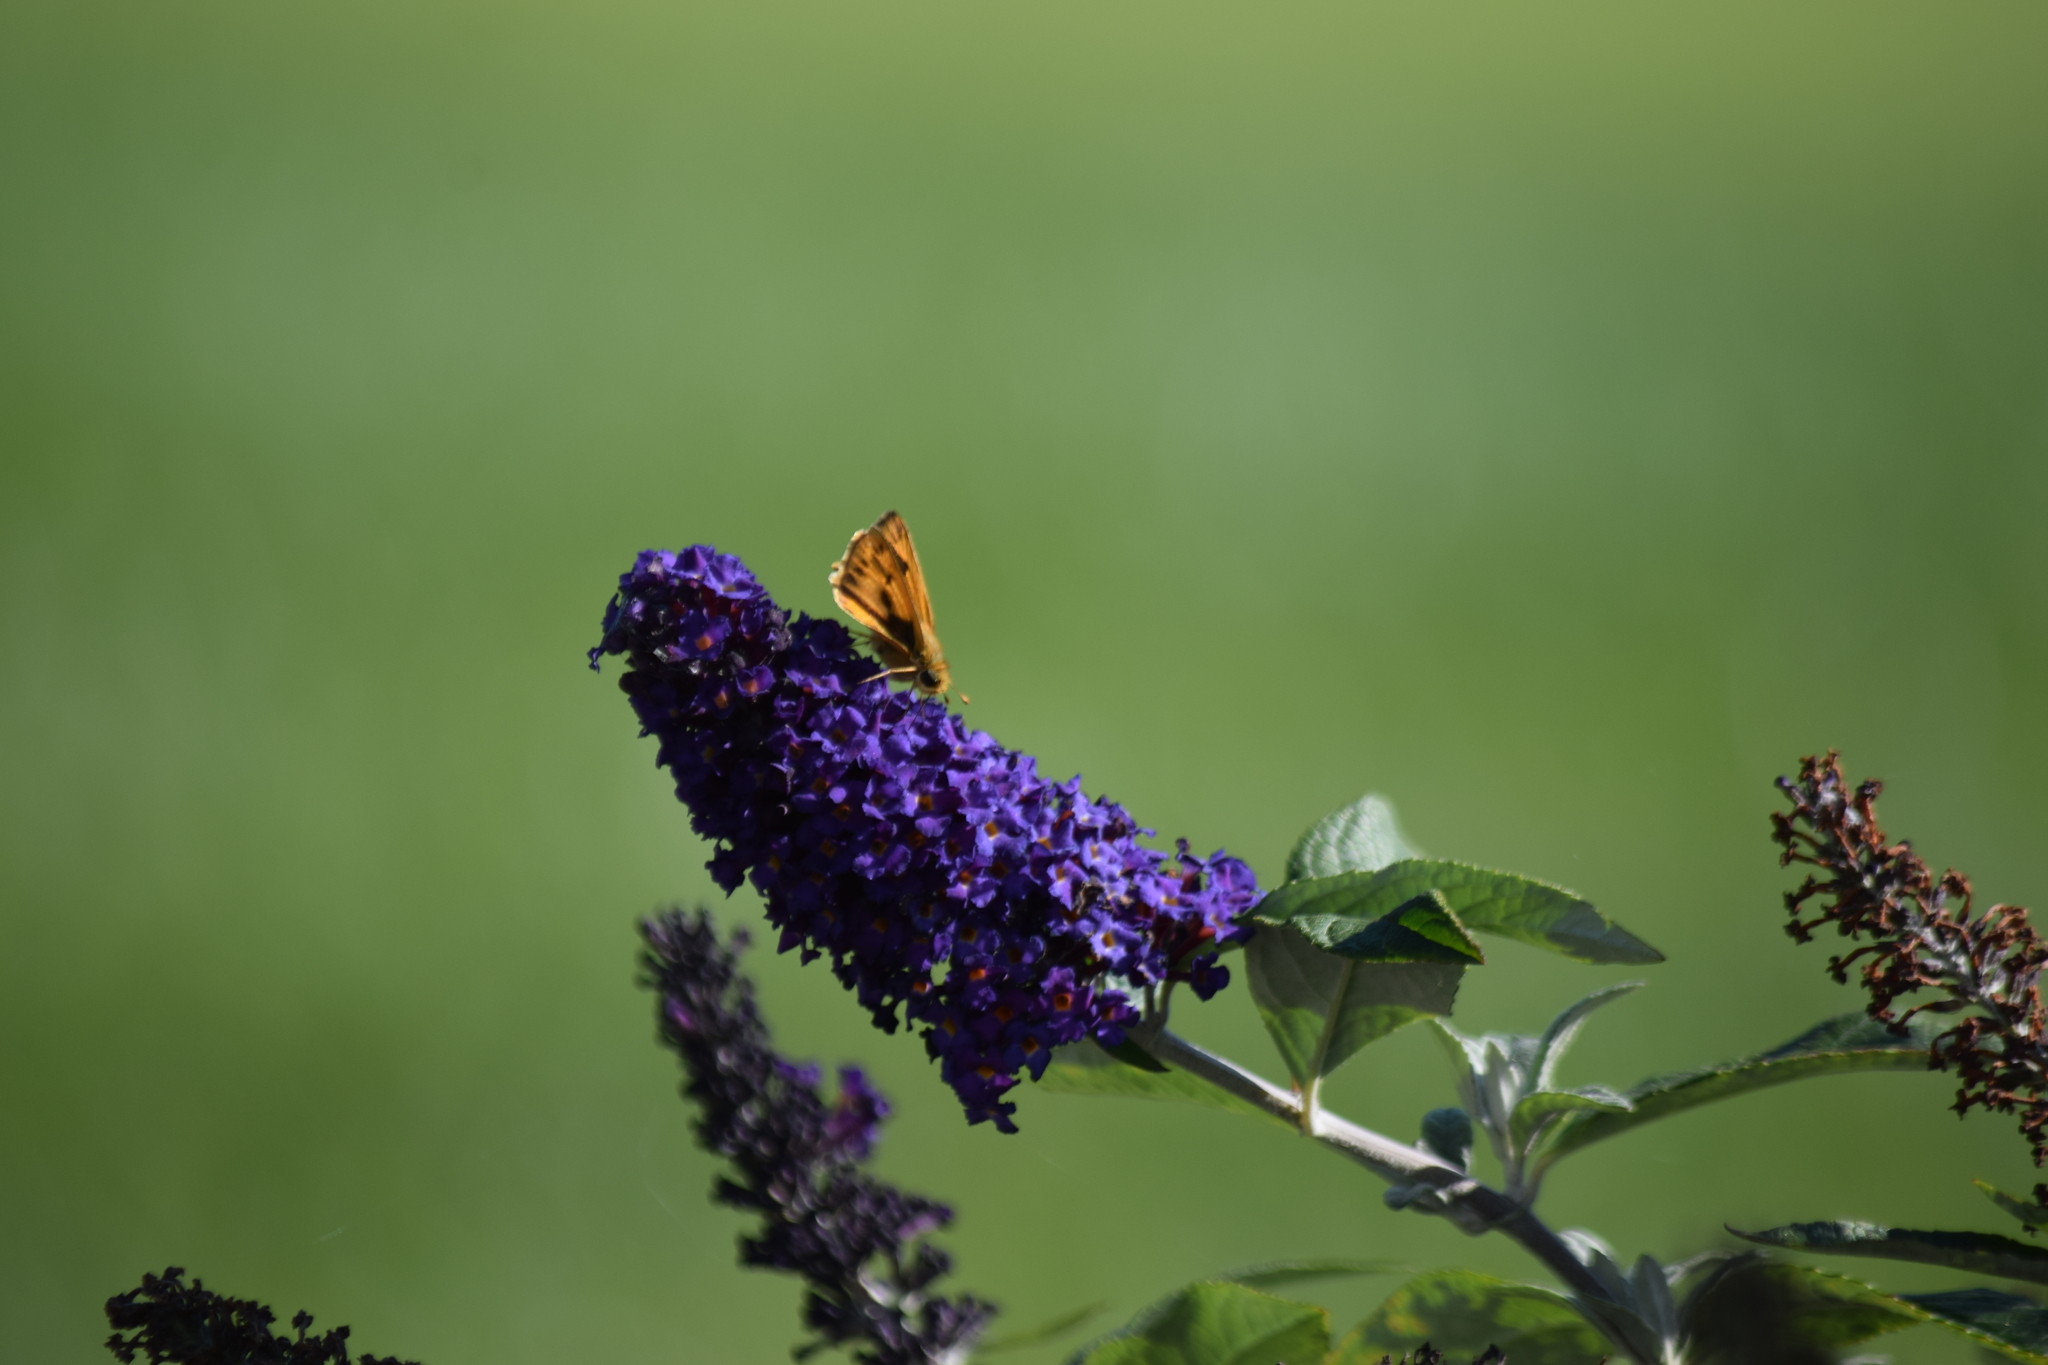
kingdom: Animalia
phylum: Arthropoda
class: Insecta
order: Lepidoptera
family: Hesperiidae
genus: Hylephila
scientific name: Hylephila phyleus
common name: Fiery skipper
